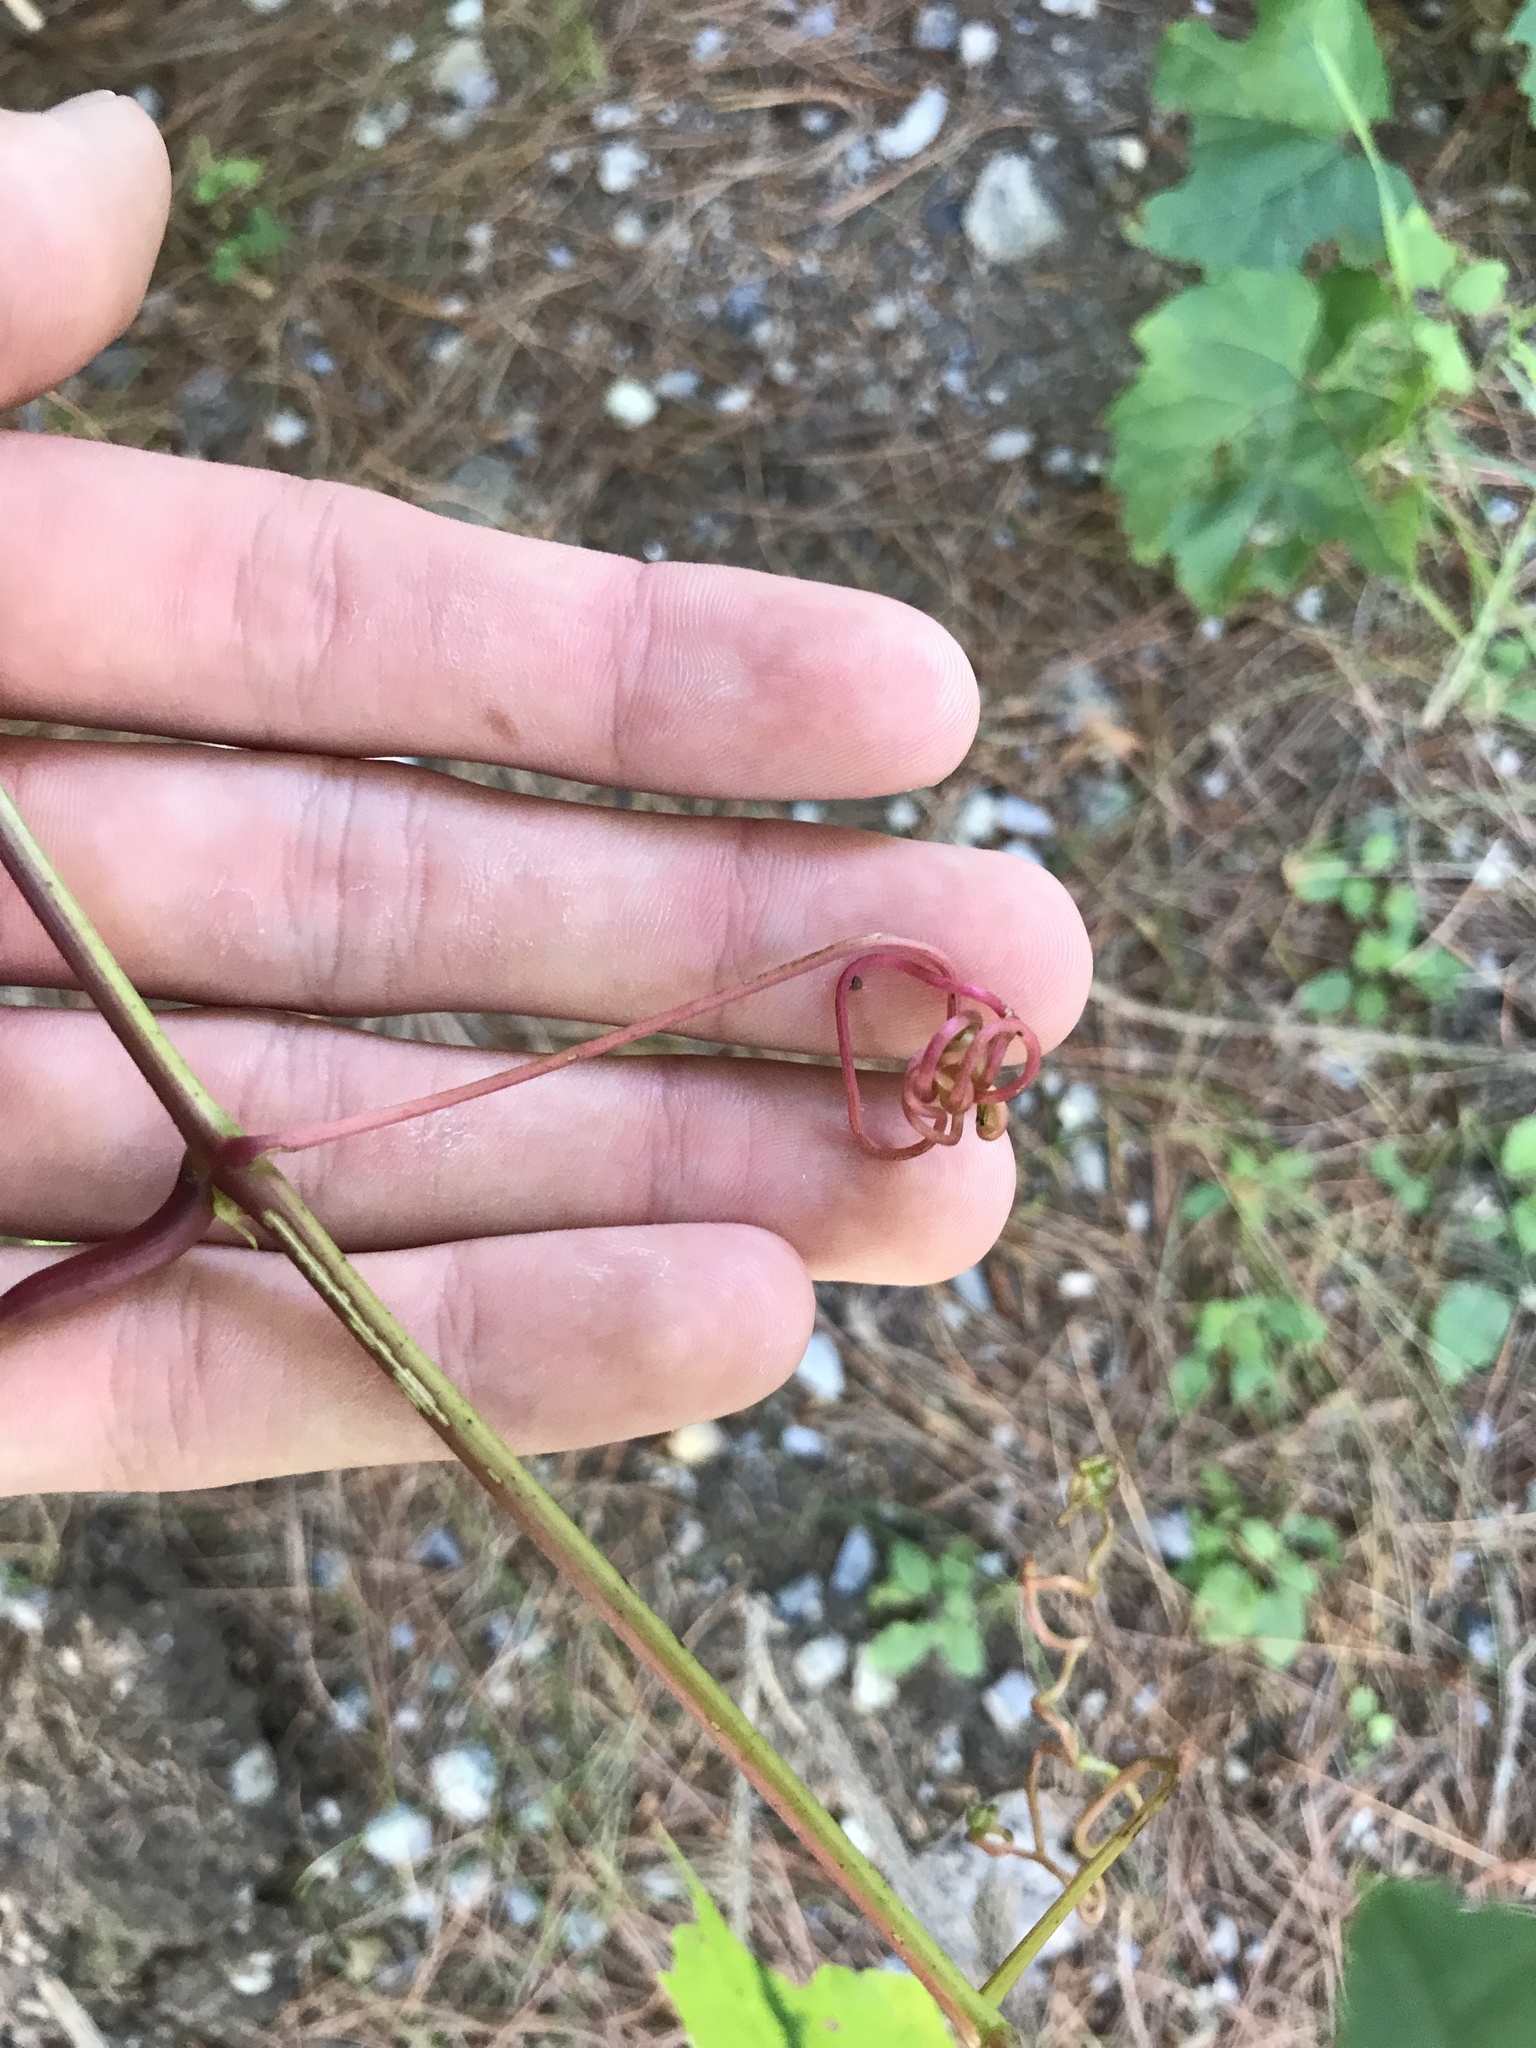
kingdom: Plantae
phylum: Tracheophyta
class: Magnoliopsida
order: Vitales
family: Vitaceae
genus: Vitis
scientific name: Vitis riparia
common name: Frost grape
